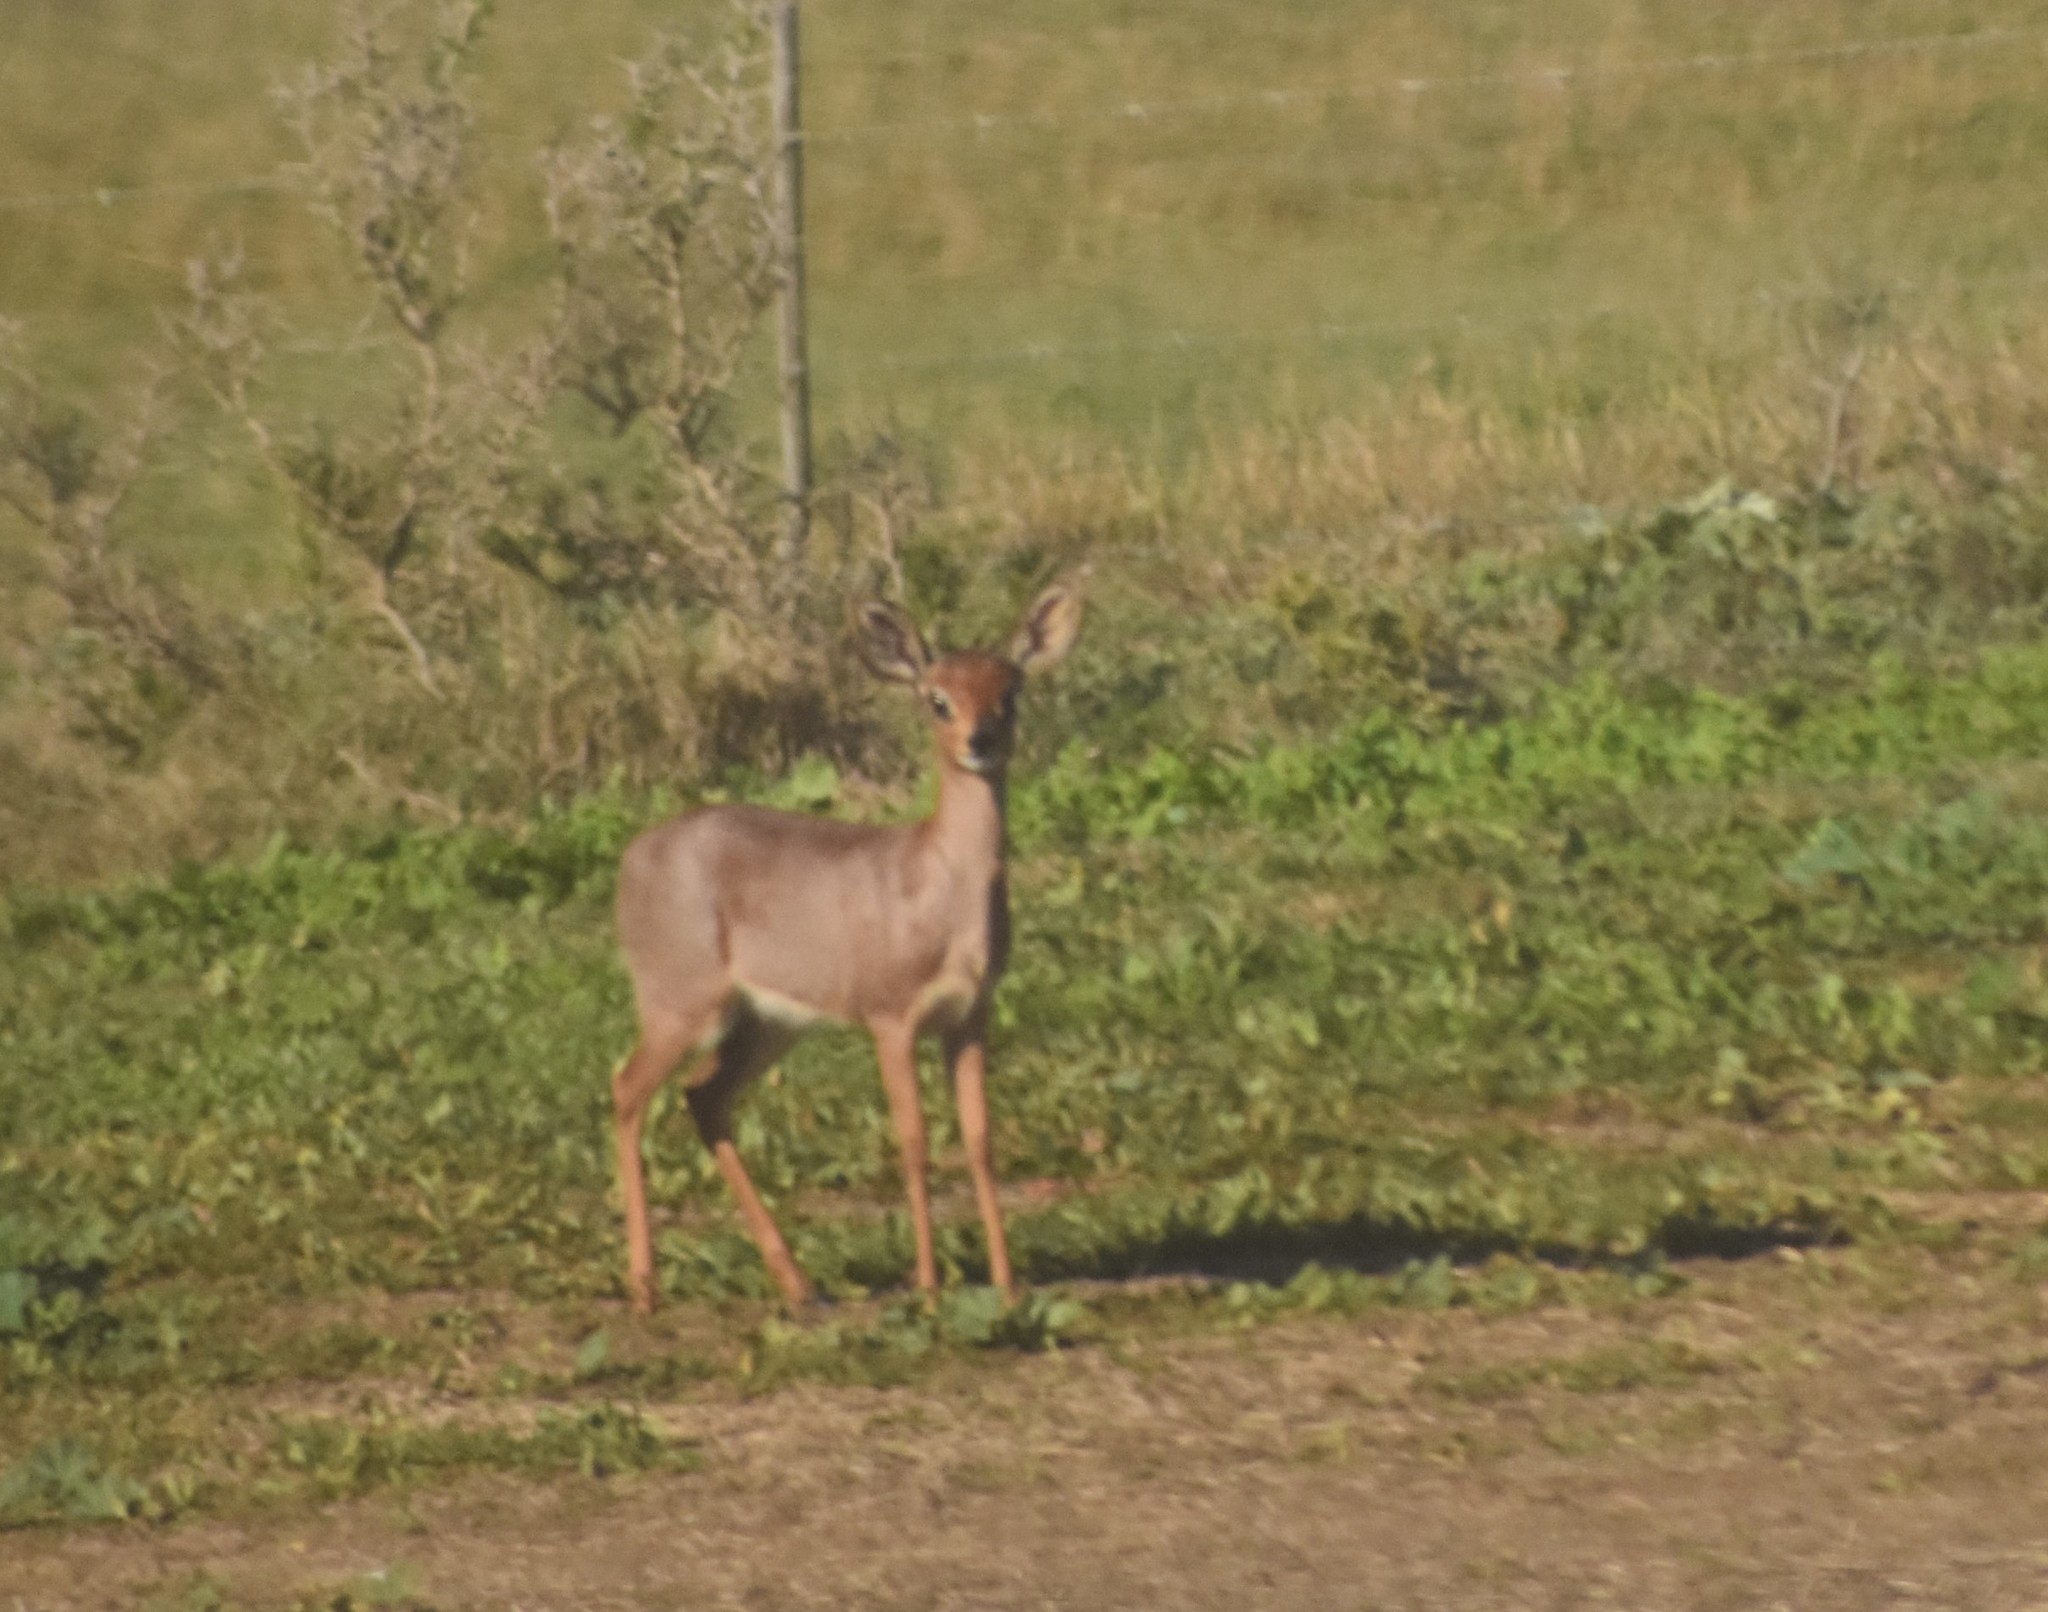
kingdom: Animalia
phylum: Chordata
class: Mammalia
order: Artiodactyla
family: Bovidae
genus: Raphicerus
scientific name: Raphicerus campestris
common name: Steenbok
